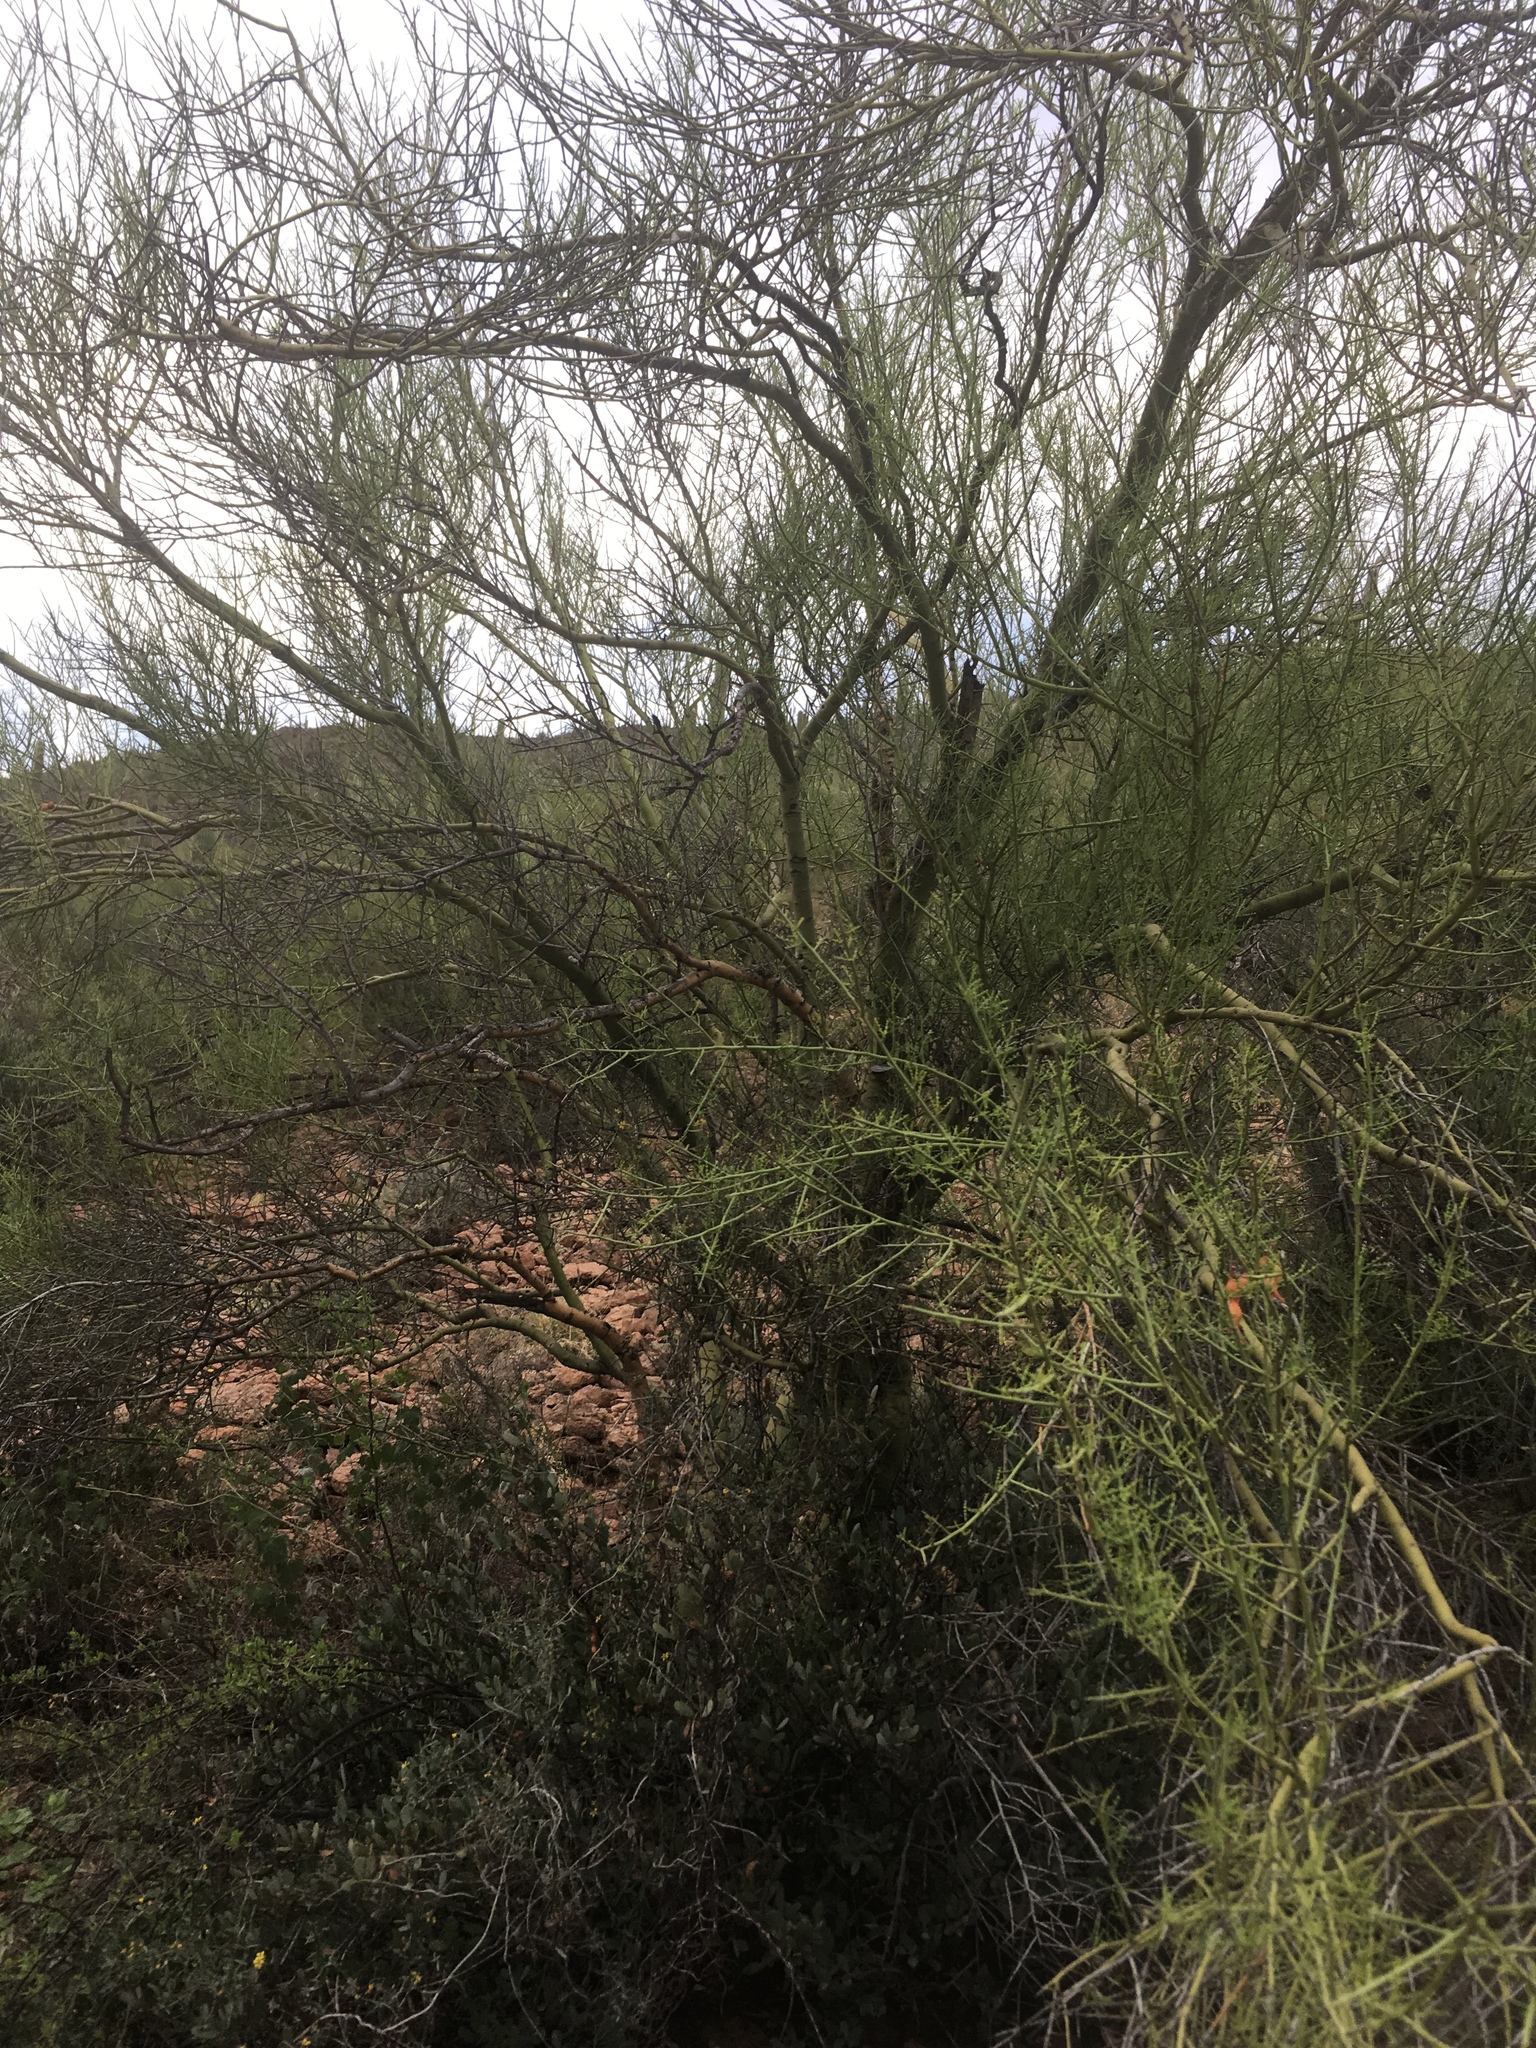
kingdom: Plantae
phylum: Tracheophyta
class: Magnoliopsida
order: Fabales
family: Fabaceae
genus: Parkinsonia
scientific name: Parkinsonia microphylla
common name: Yellow paloverde
